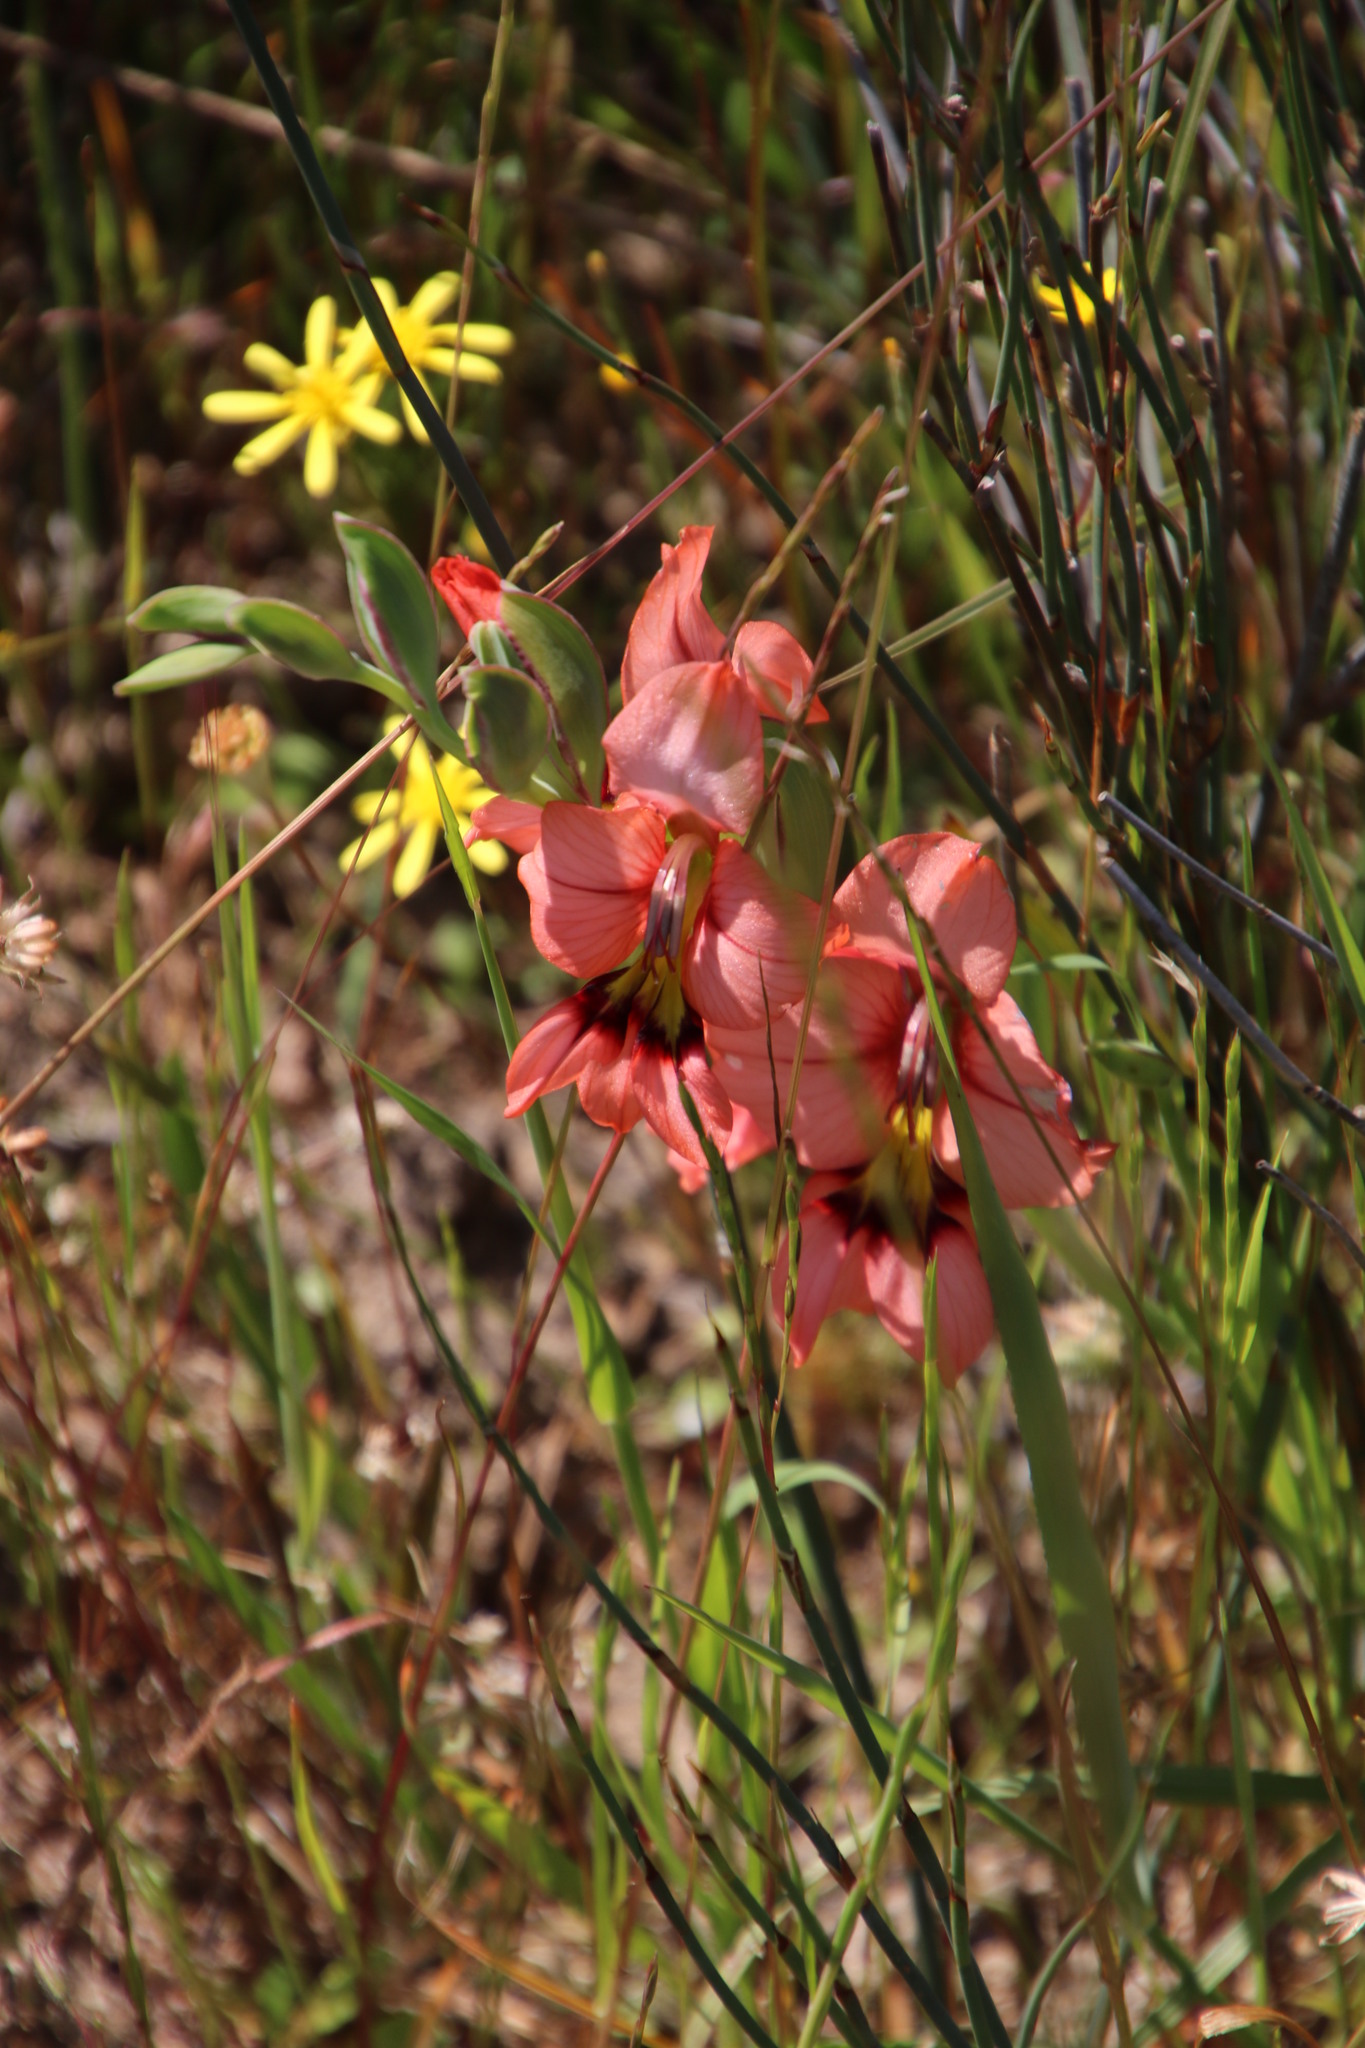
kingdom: Plantae
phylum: Tracheophyta
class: Liliopsida
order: Asparagales
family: Iridaceae
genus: Gladiolus
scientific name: Gladiolus meliusculus
